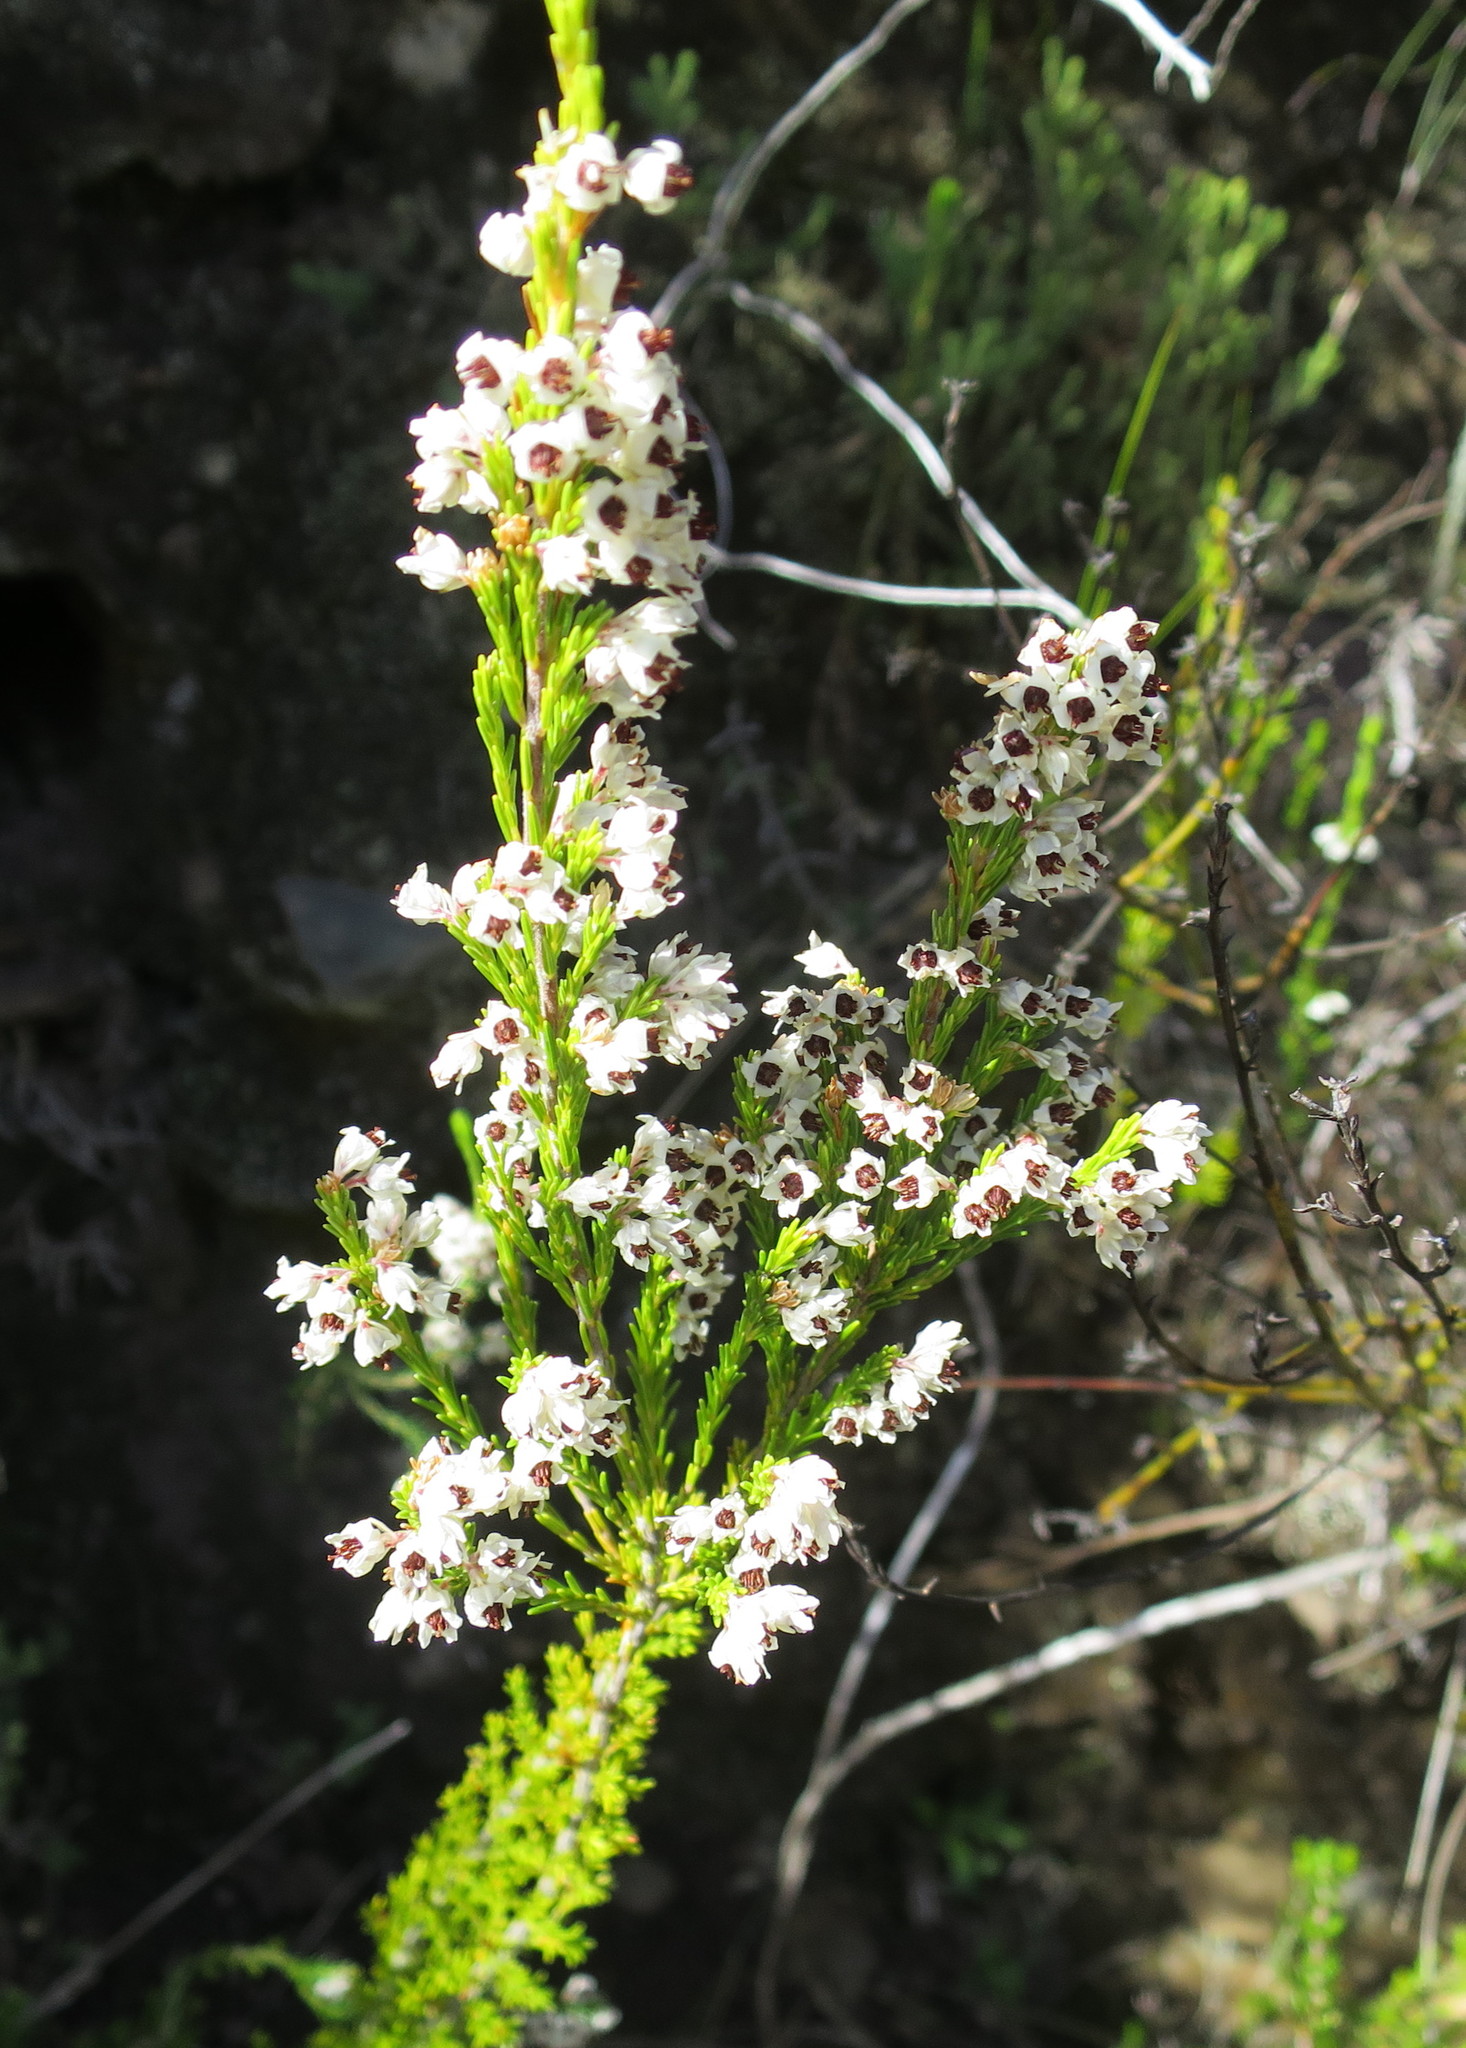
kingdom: Plantae
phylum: Tracheophyta
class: Magnoliopsida
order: Ericales
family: Ericaceae
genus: Erica
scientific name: Erica calycina
